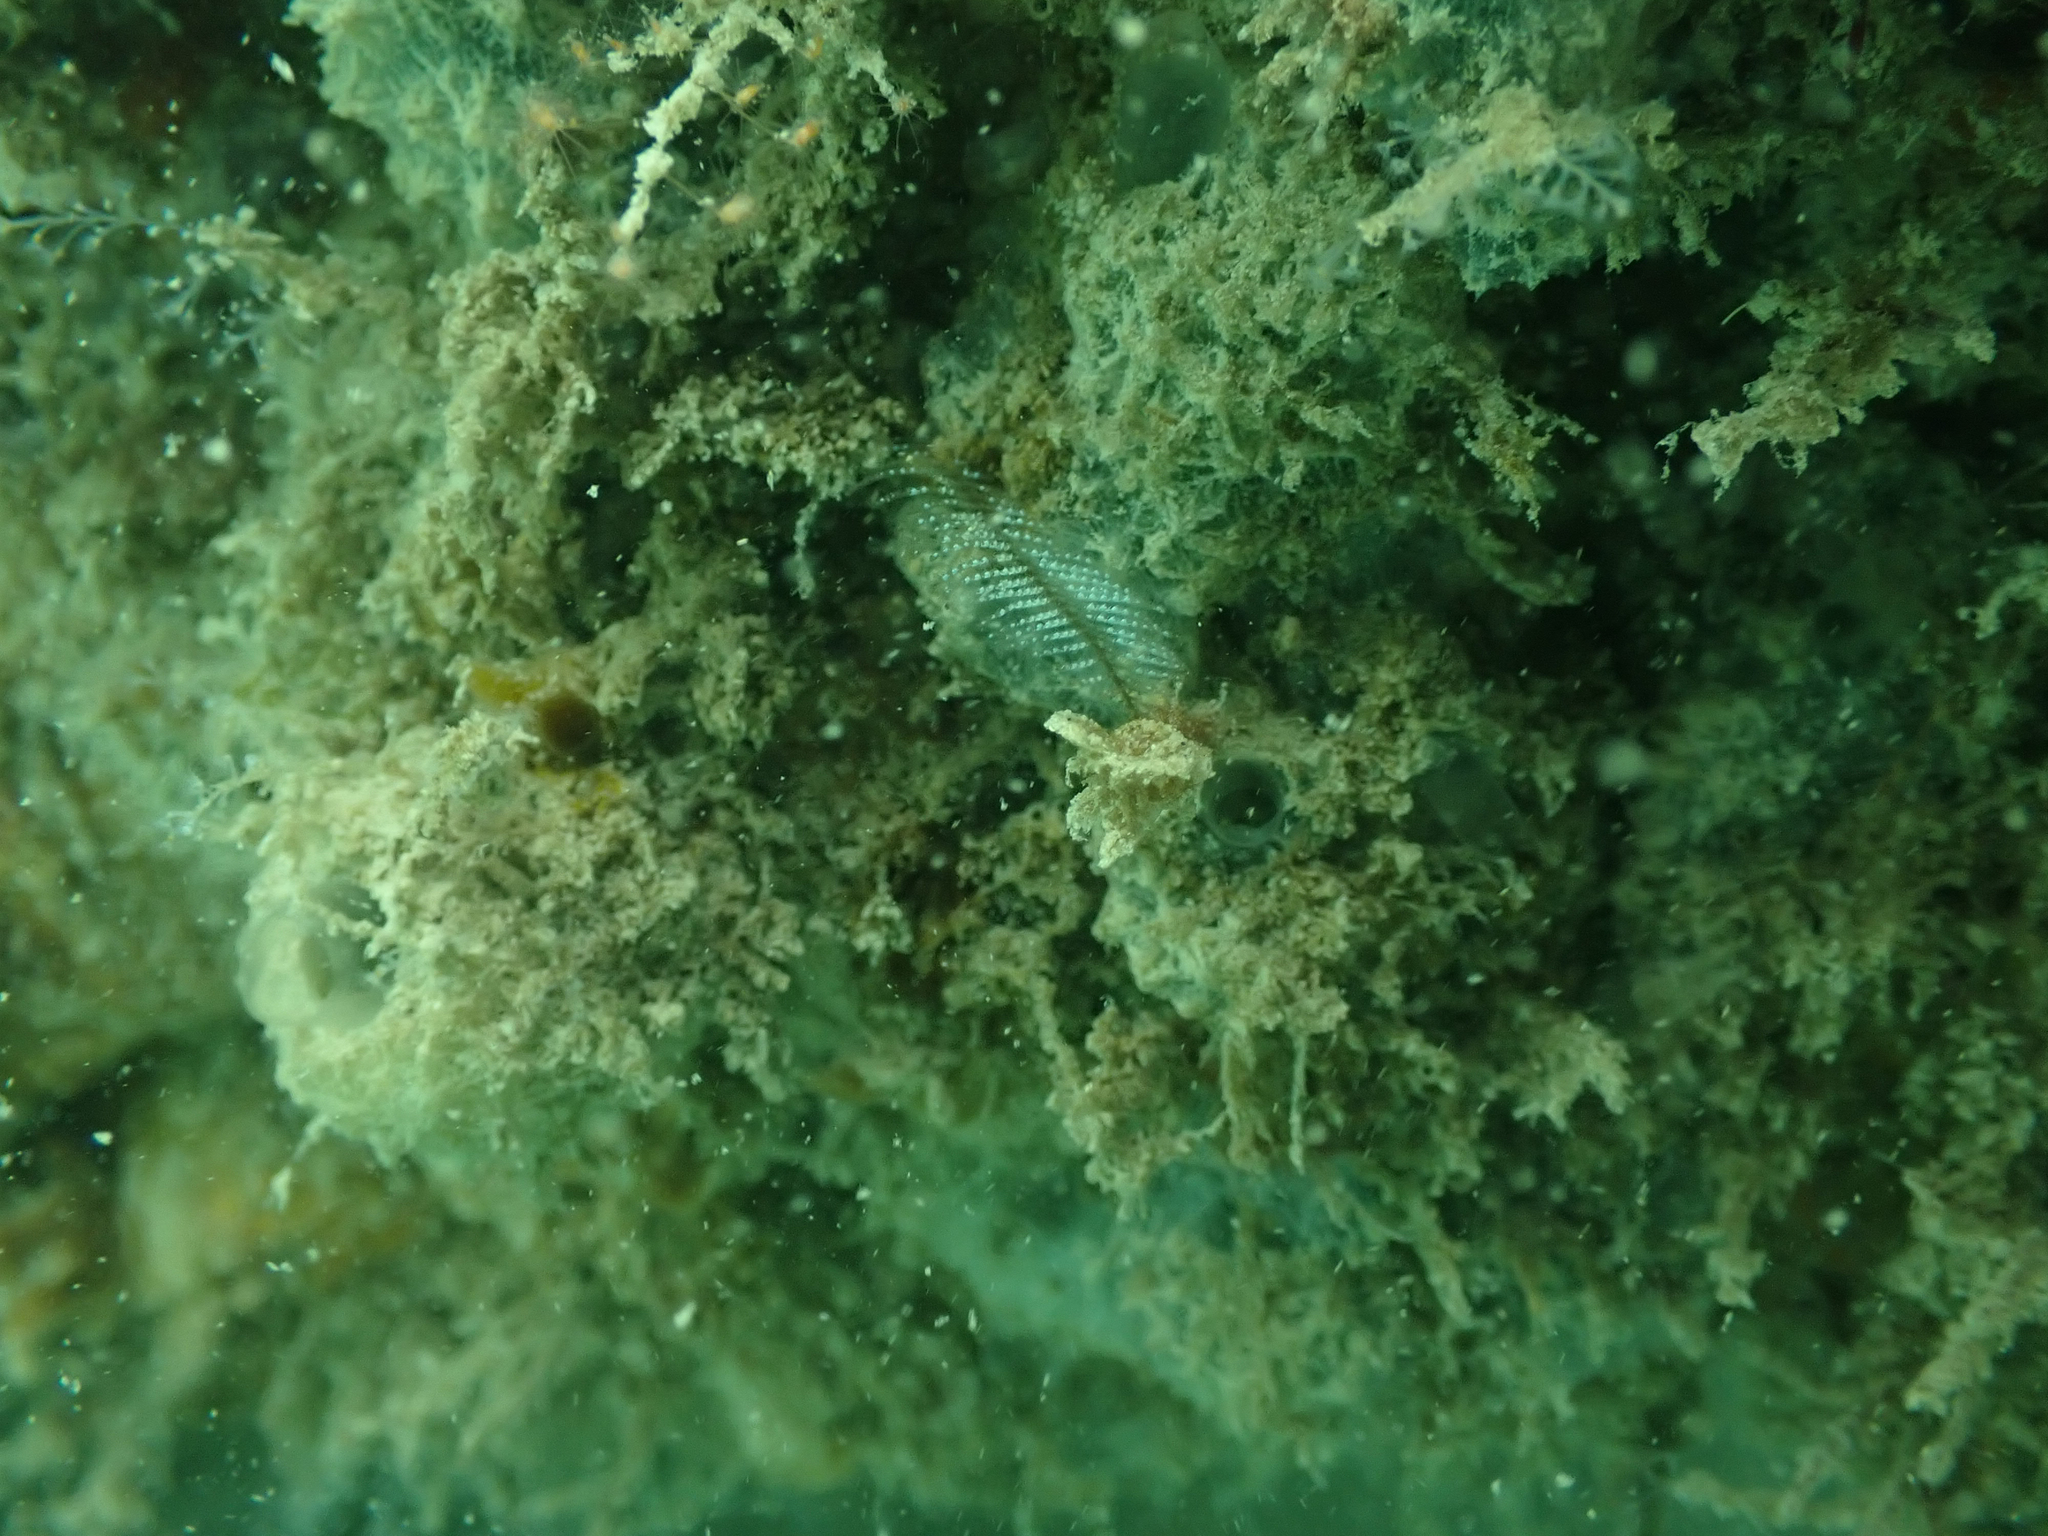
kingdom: Animalia
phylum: Cnidaria
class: Hydrozoa
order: Leptothecata
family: Aglaopheniidae
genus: Macrorhynchia
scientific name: Macrorhynchia philippina
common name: Stinging hydroid
